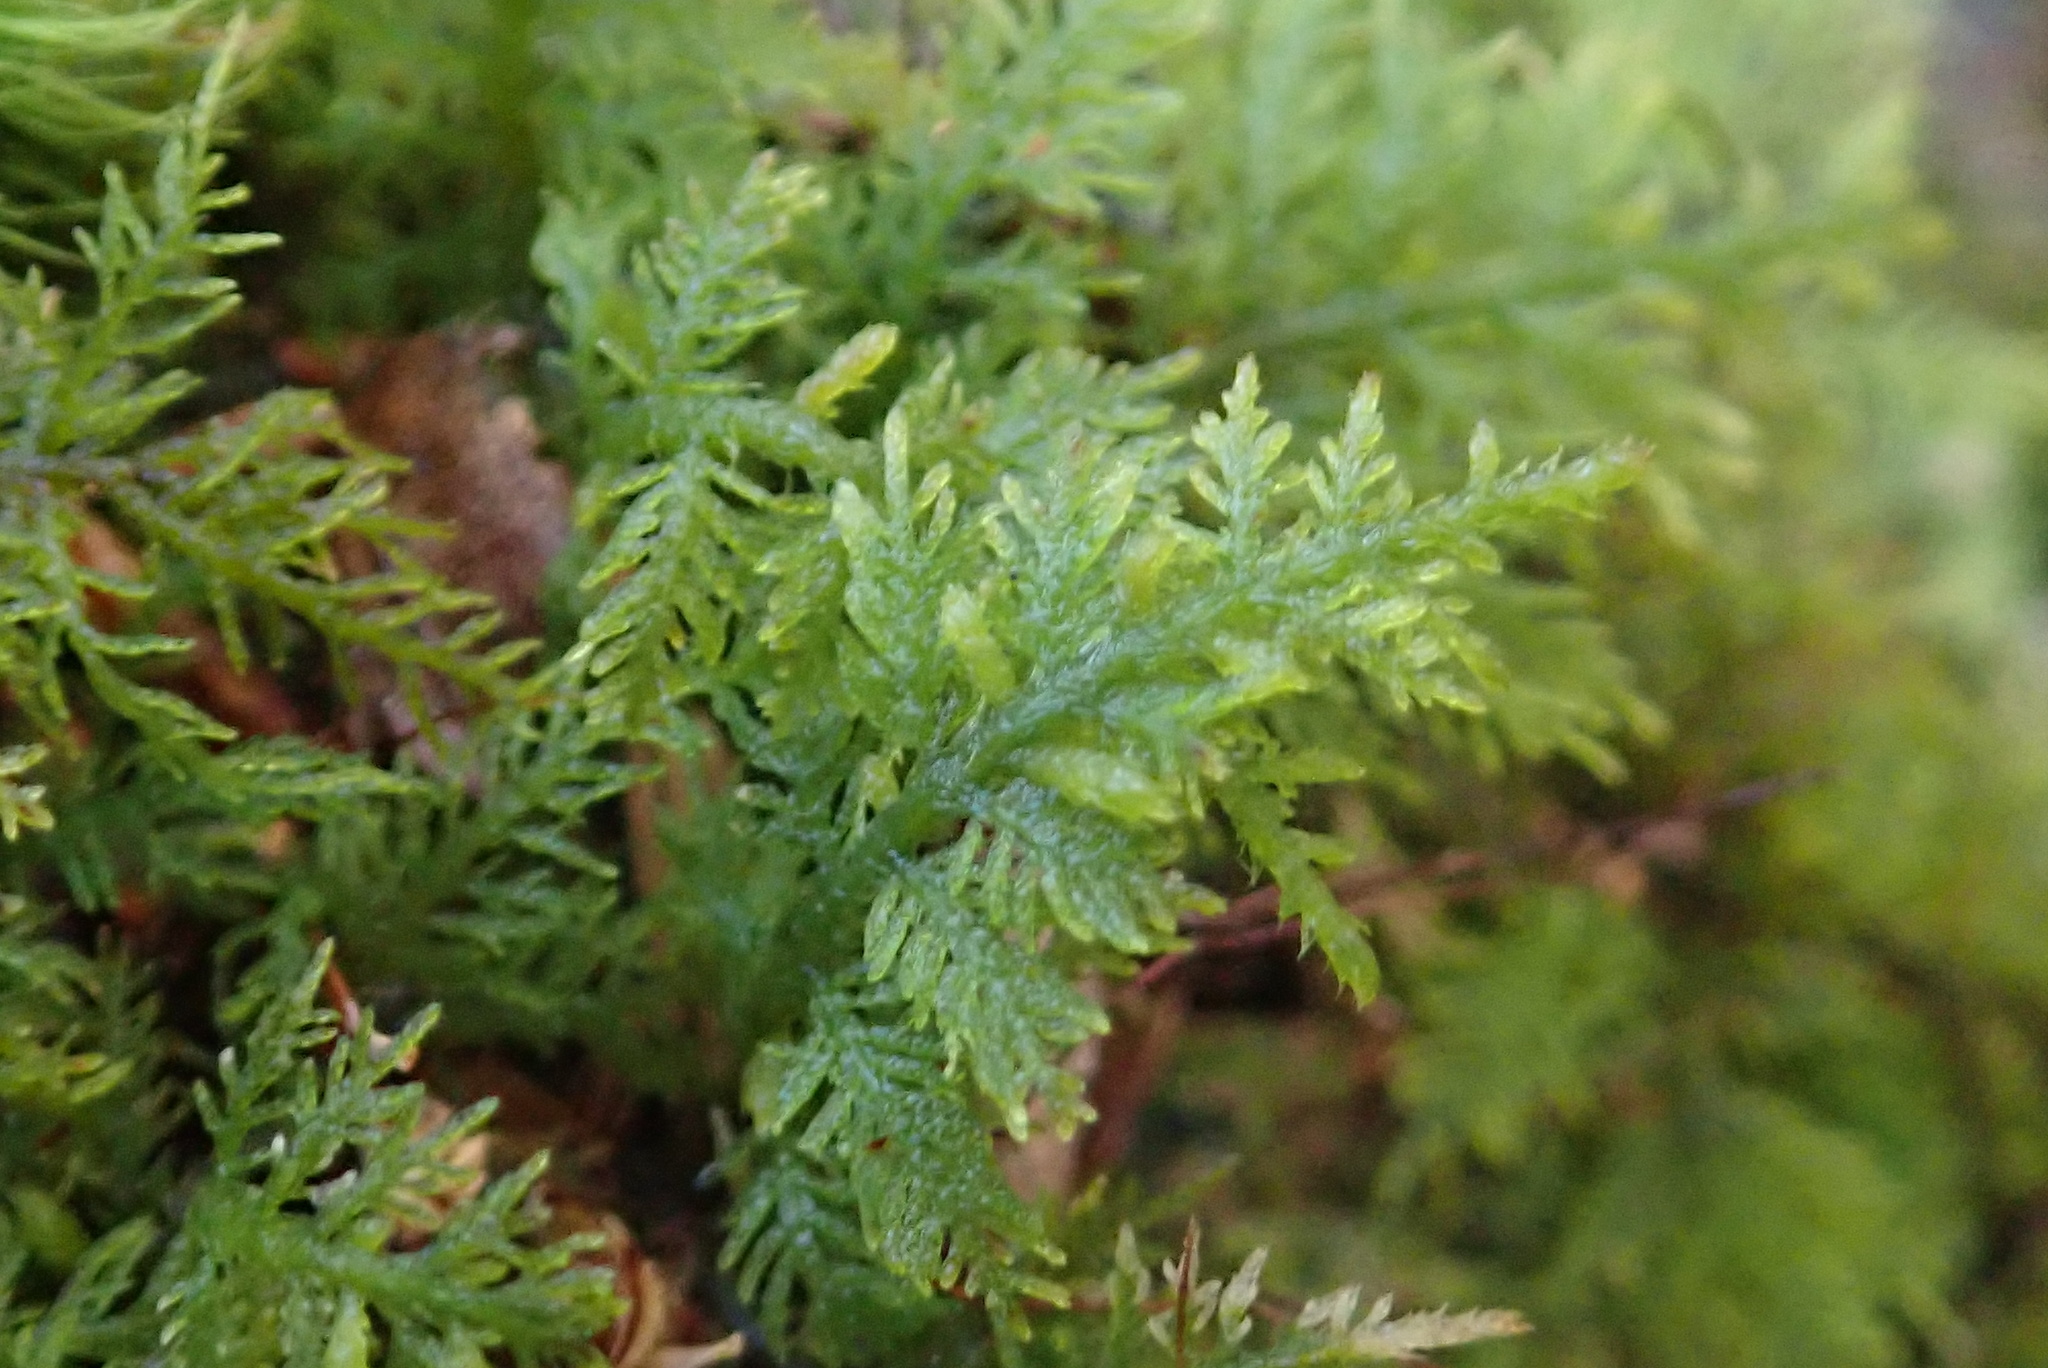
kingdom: Plantae
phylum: Bryophyta
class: Bryopsida
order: Hypnales
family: Hylocomiaceae
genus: Hylocomium
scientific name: Hylocomium splendens
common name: Stairstep moss
